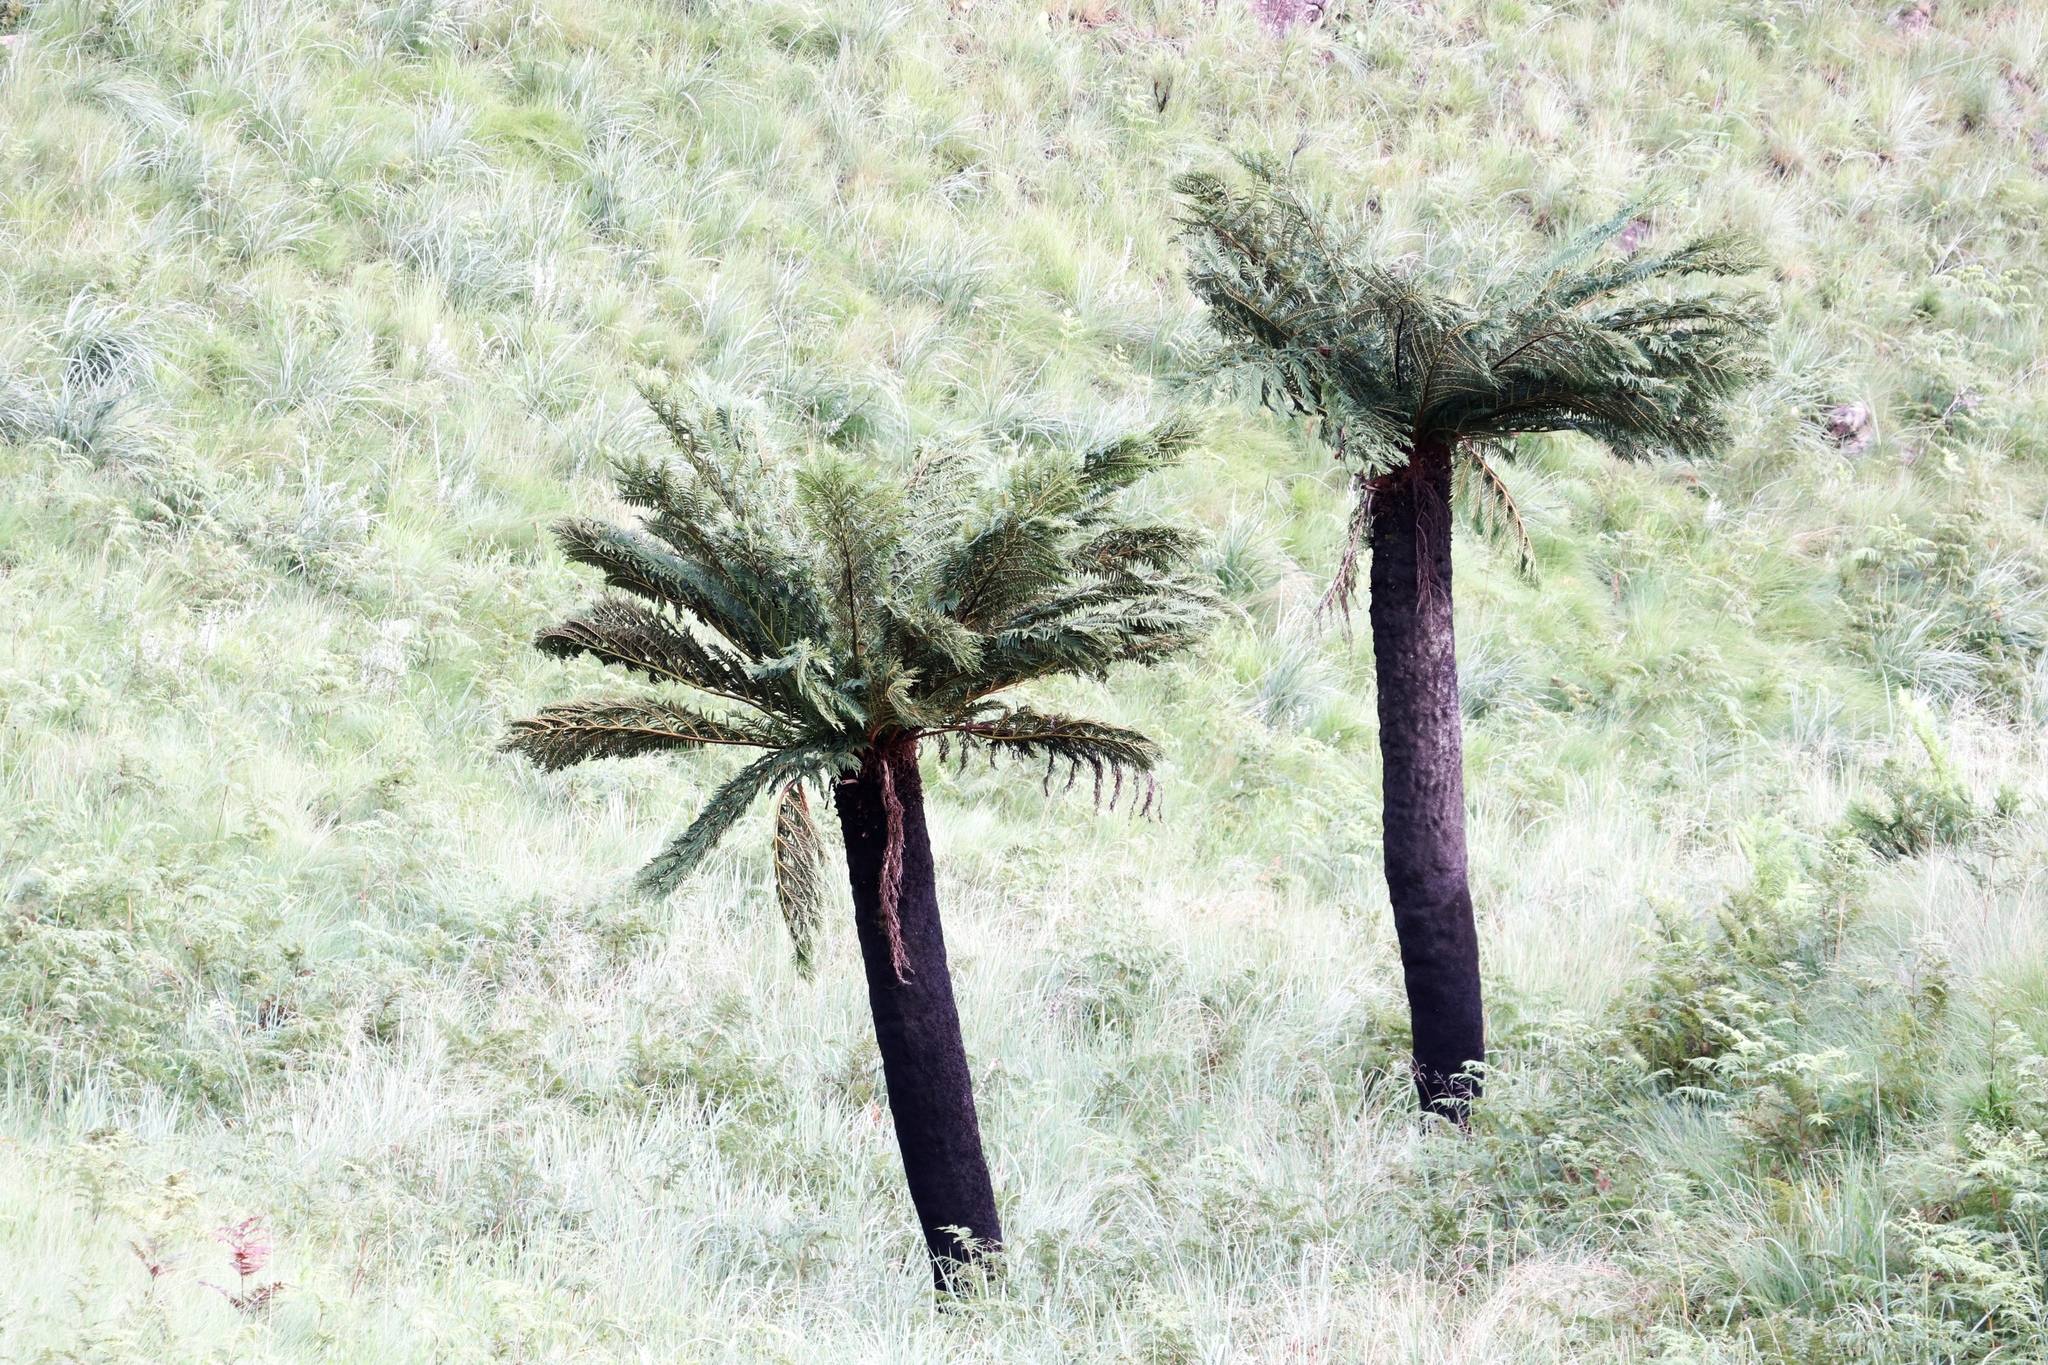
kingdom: Plantae
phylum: Tracheophyta
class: Polypodiopsida
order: Cyatheales
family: Cyatheaceae
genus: Alsophila
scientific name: Alsophila dregei
